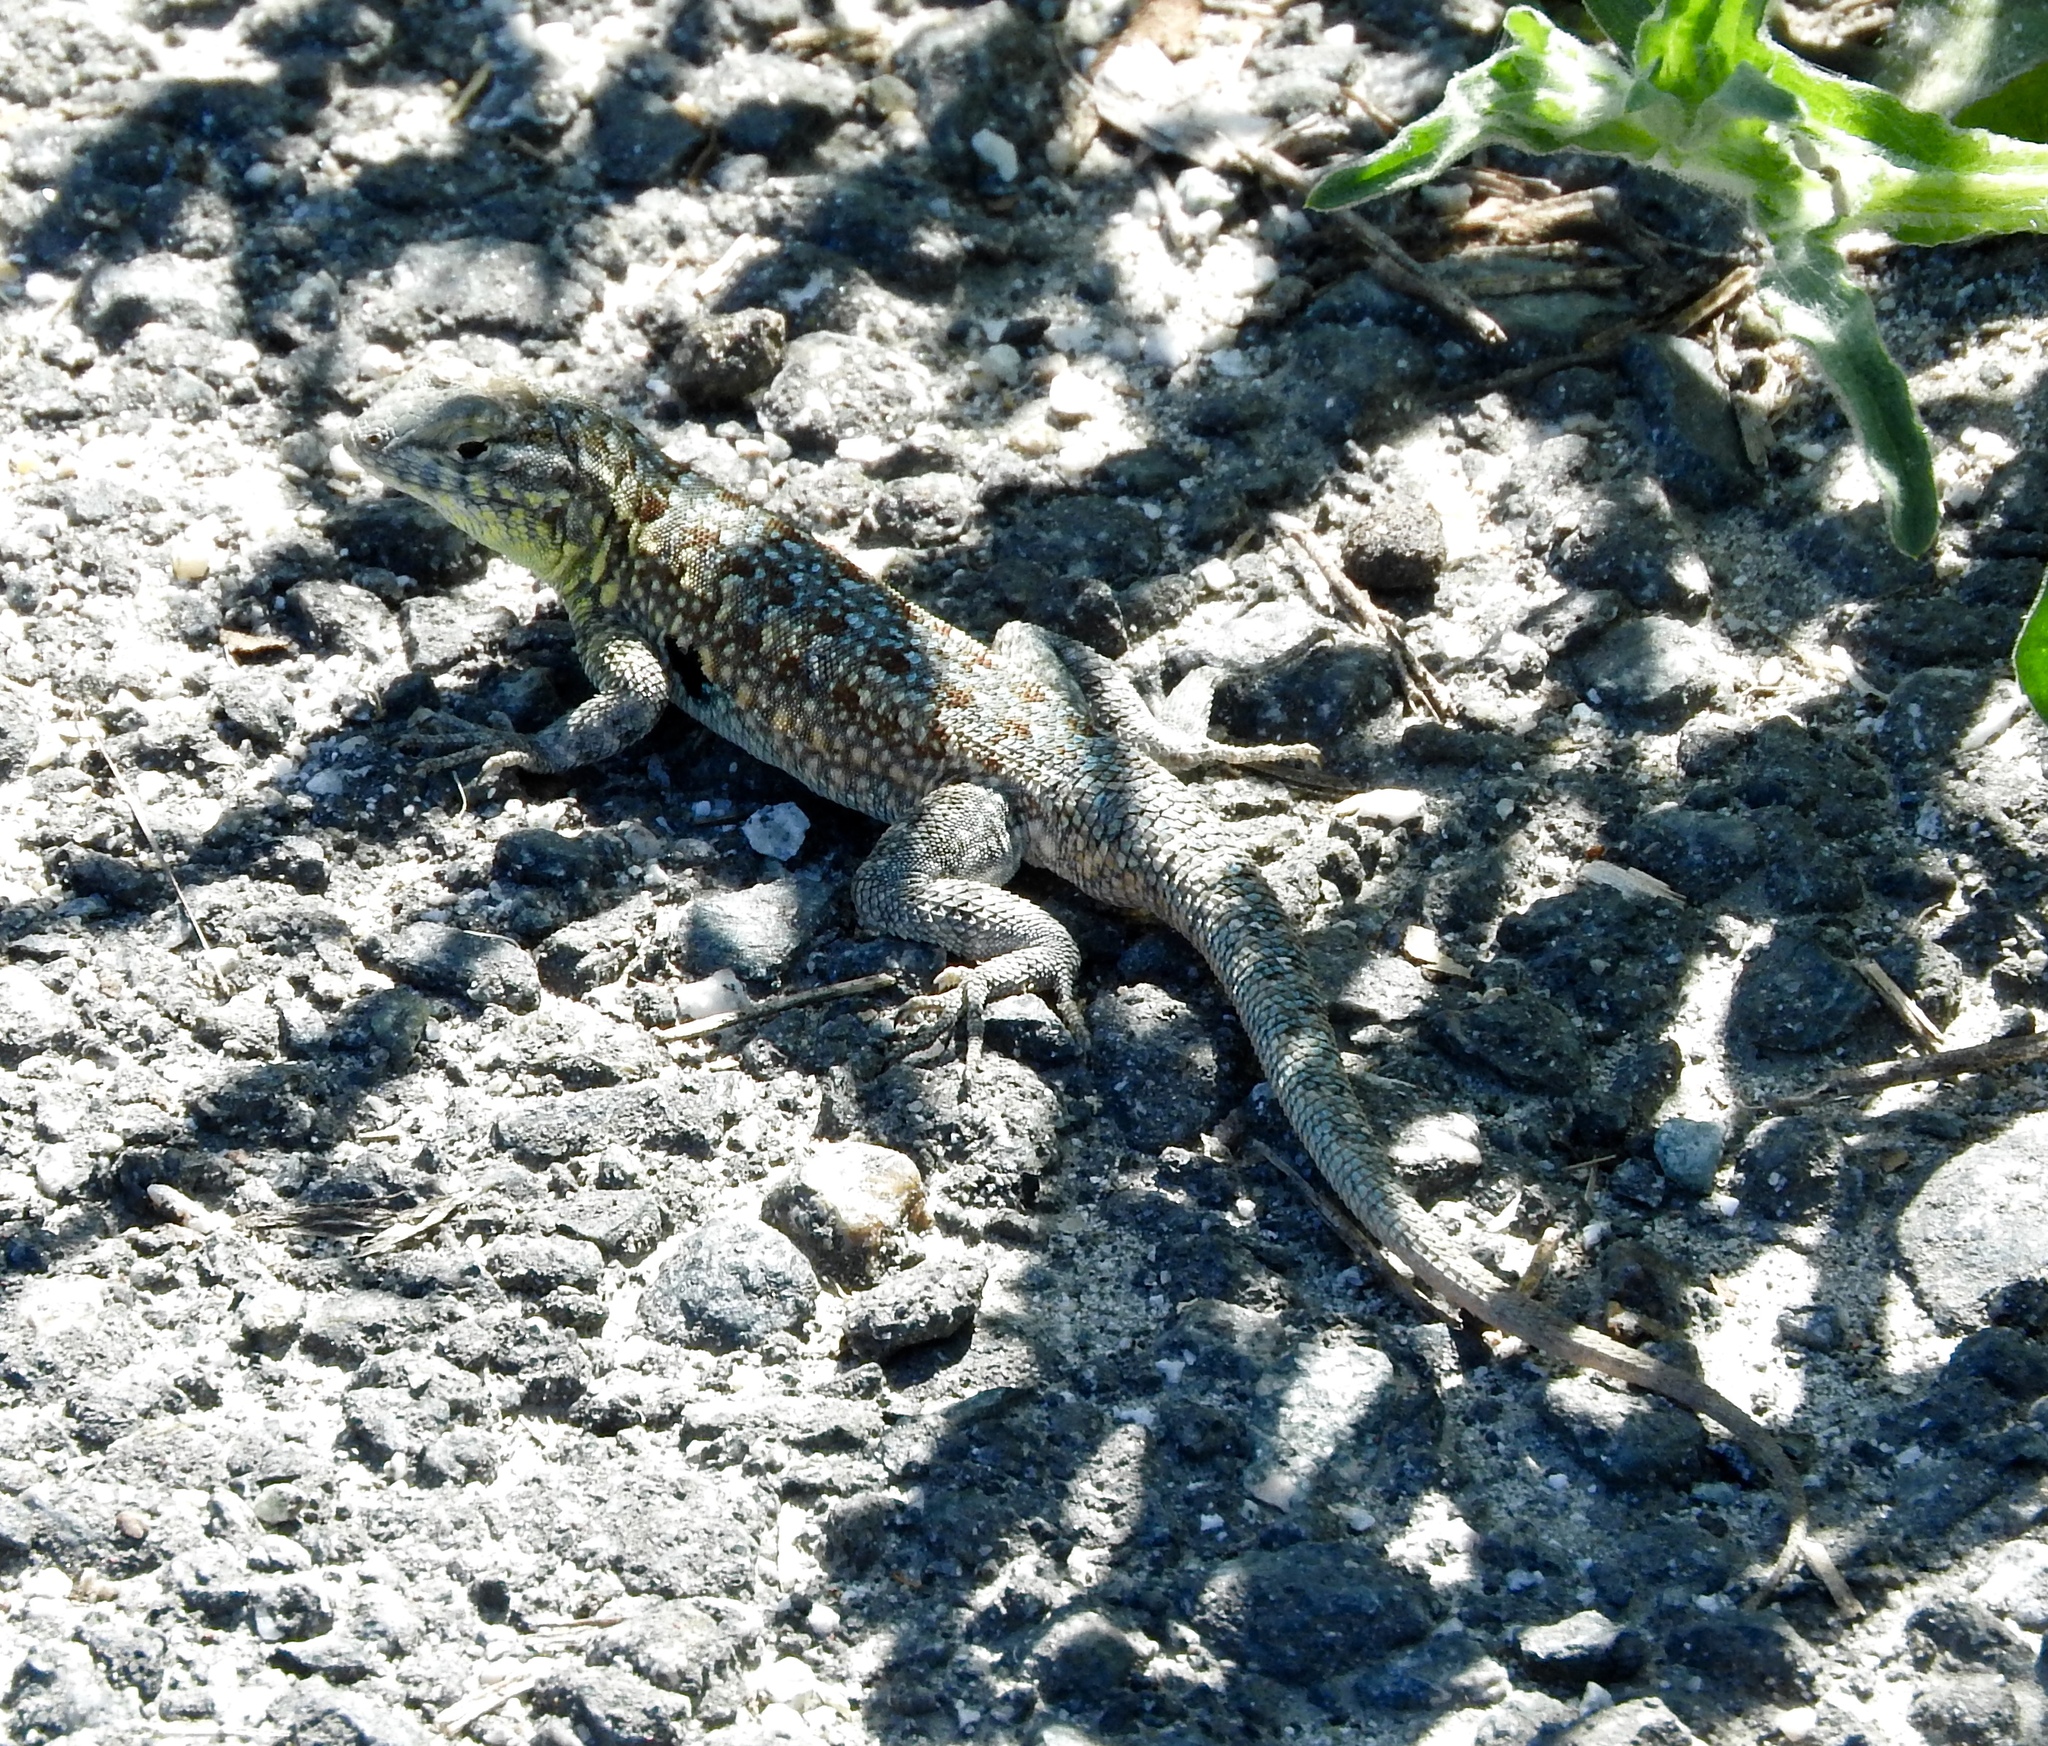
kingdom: Animalia
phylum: Chordata
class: Squamata
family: Phrynosomatidae
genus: Uta
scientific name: Uta stansburiana
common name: Side-blotched lizard
